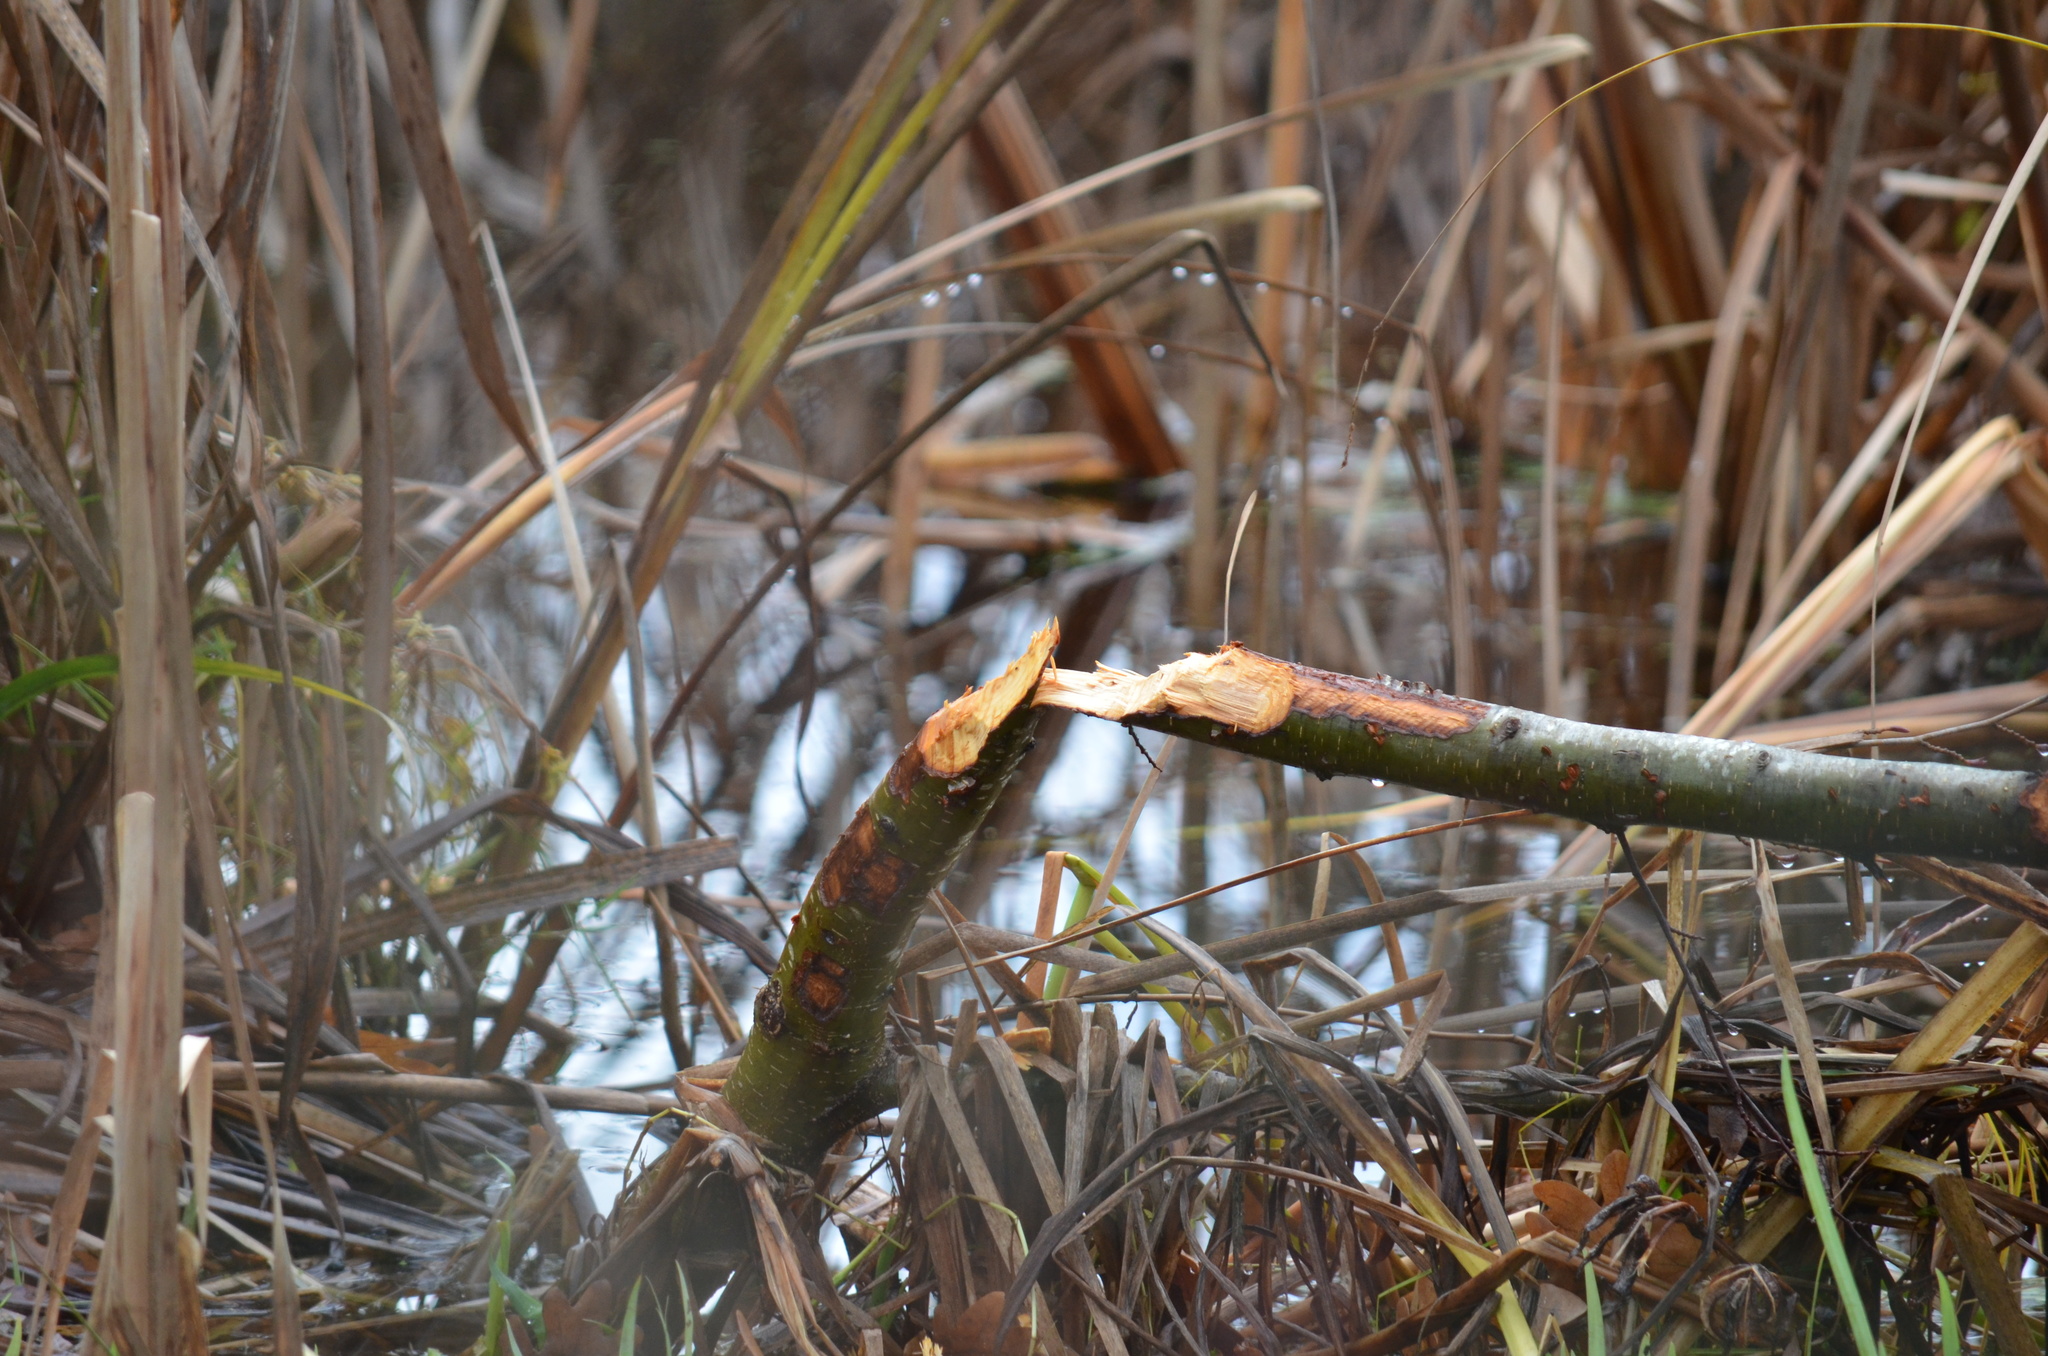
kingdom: Animalia
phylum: Chordata
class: Mammalia
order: Rodentia
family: Castoridae
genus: Castor
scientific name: Castor canadensis
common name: American beaver
